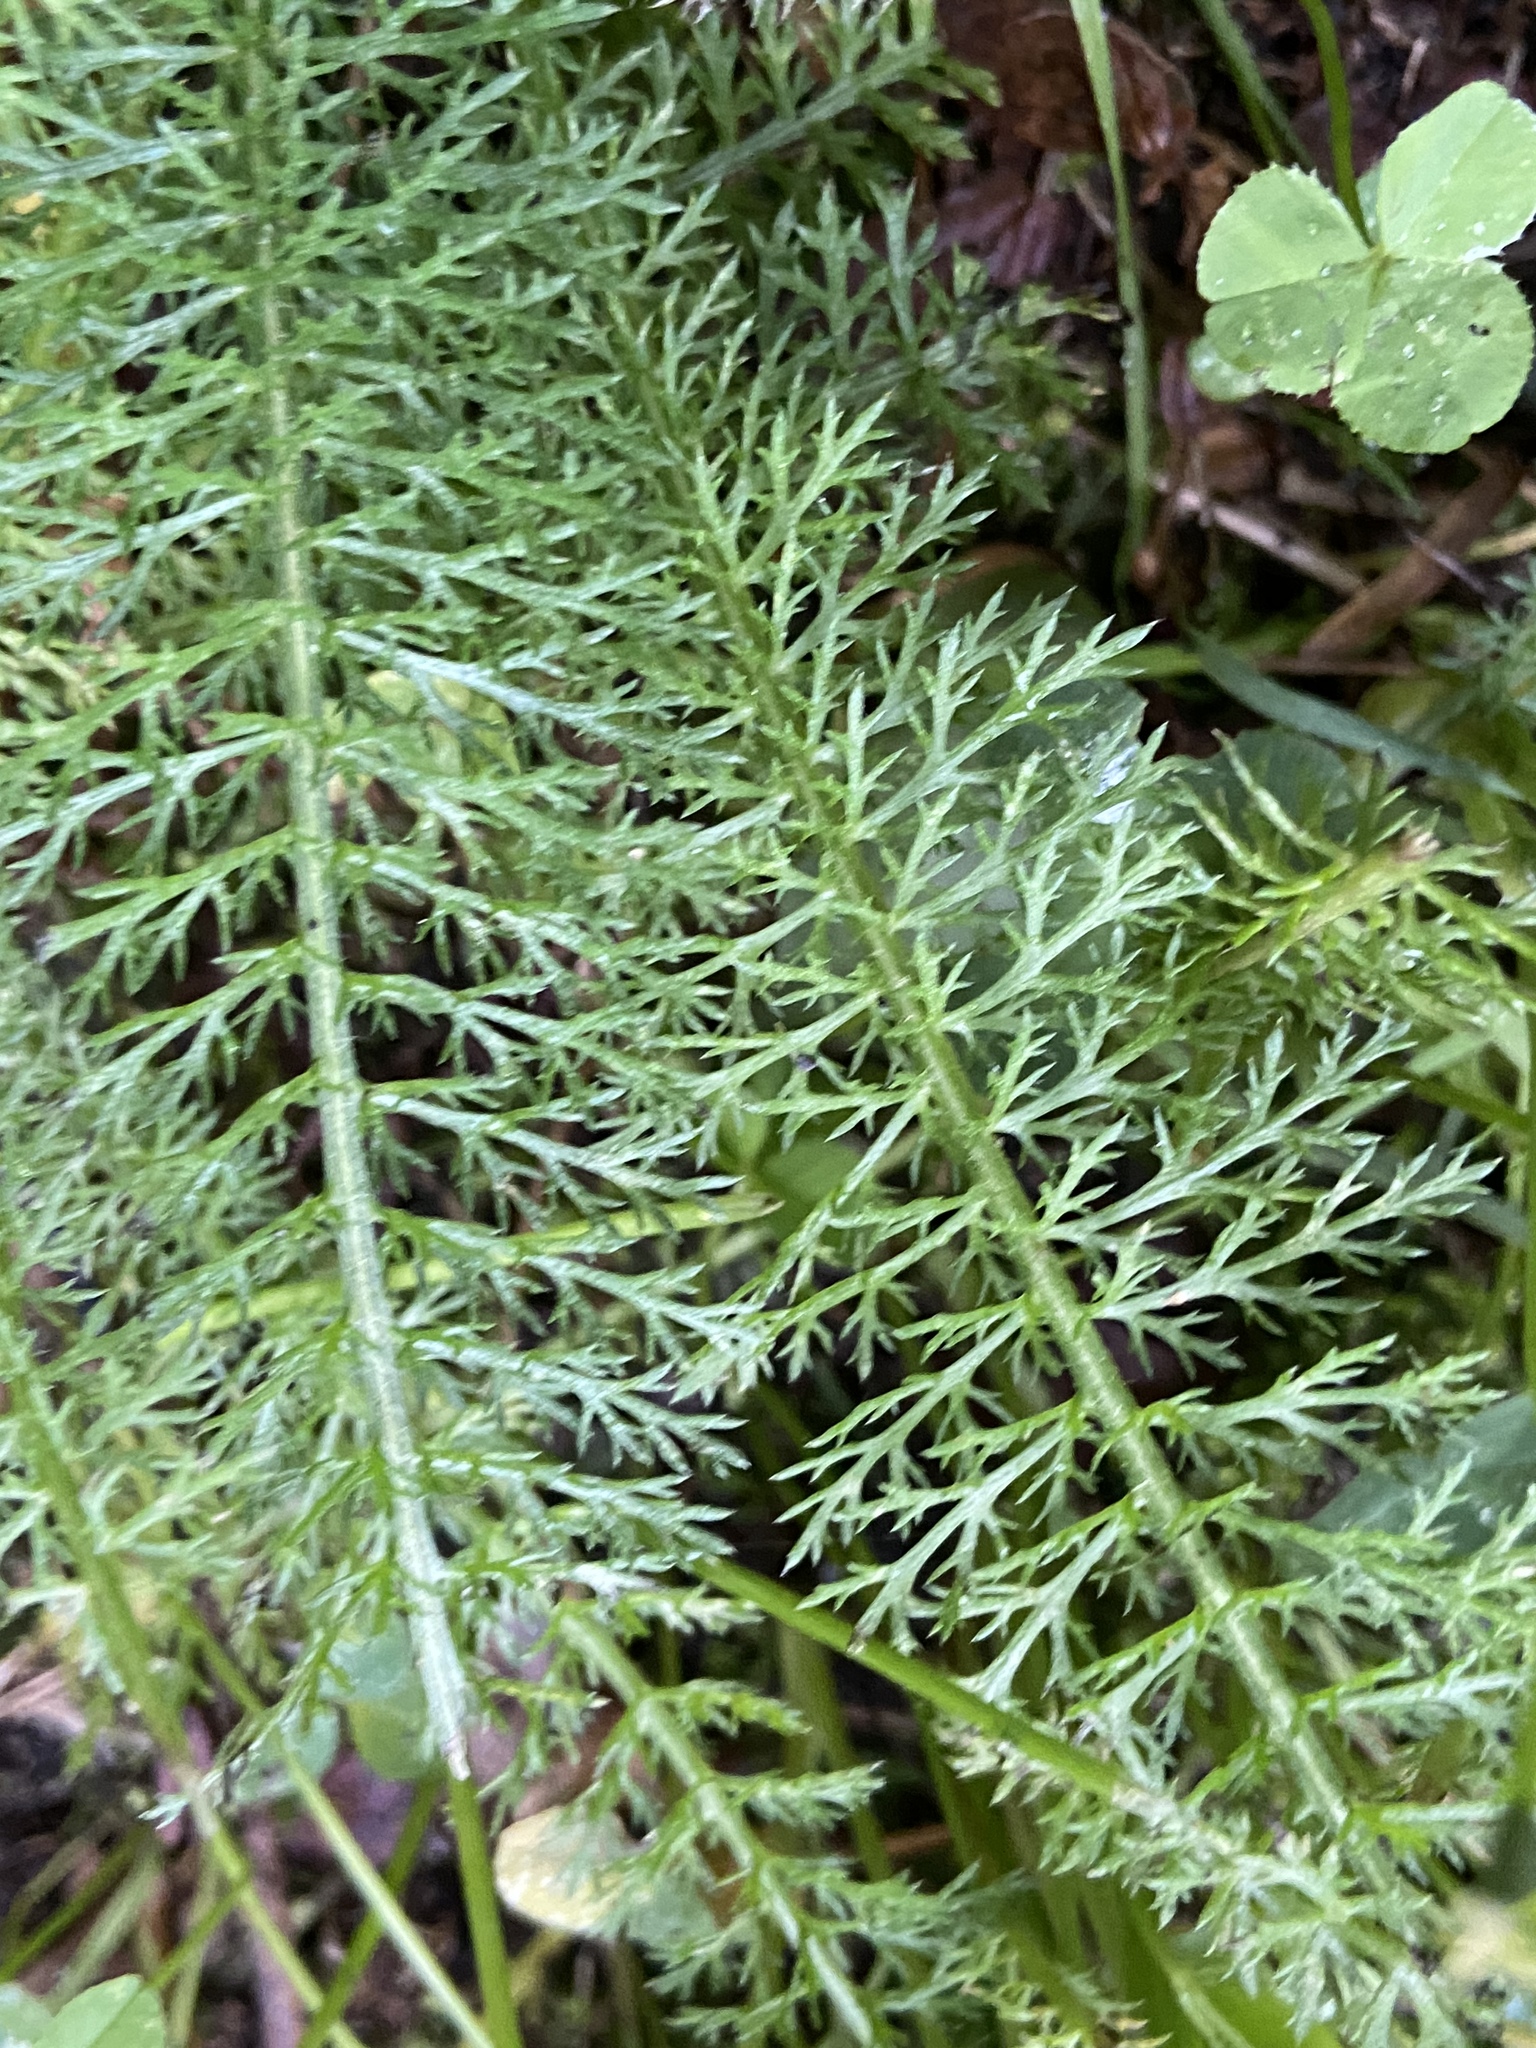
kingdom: Plantae
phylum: Tracheophyta
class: Magnoliopsida
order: Asterales
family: Asteraceae
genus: Achillea
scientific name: Achillea millefolium
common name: Yarrow
